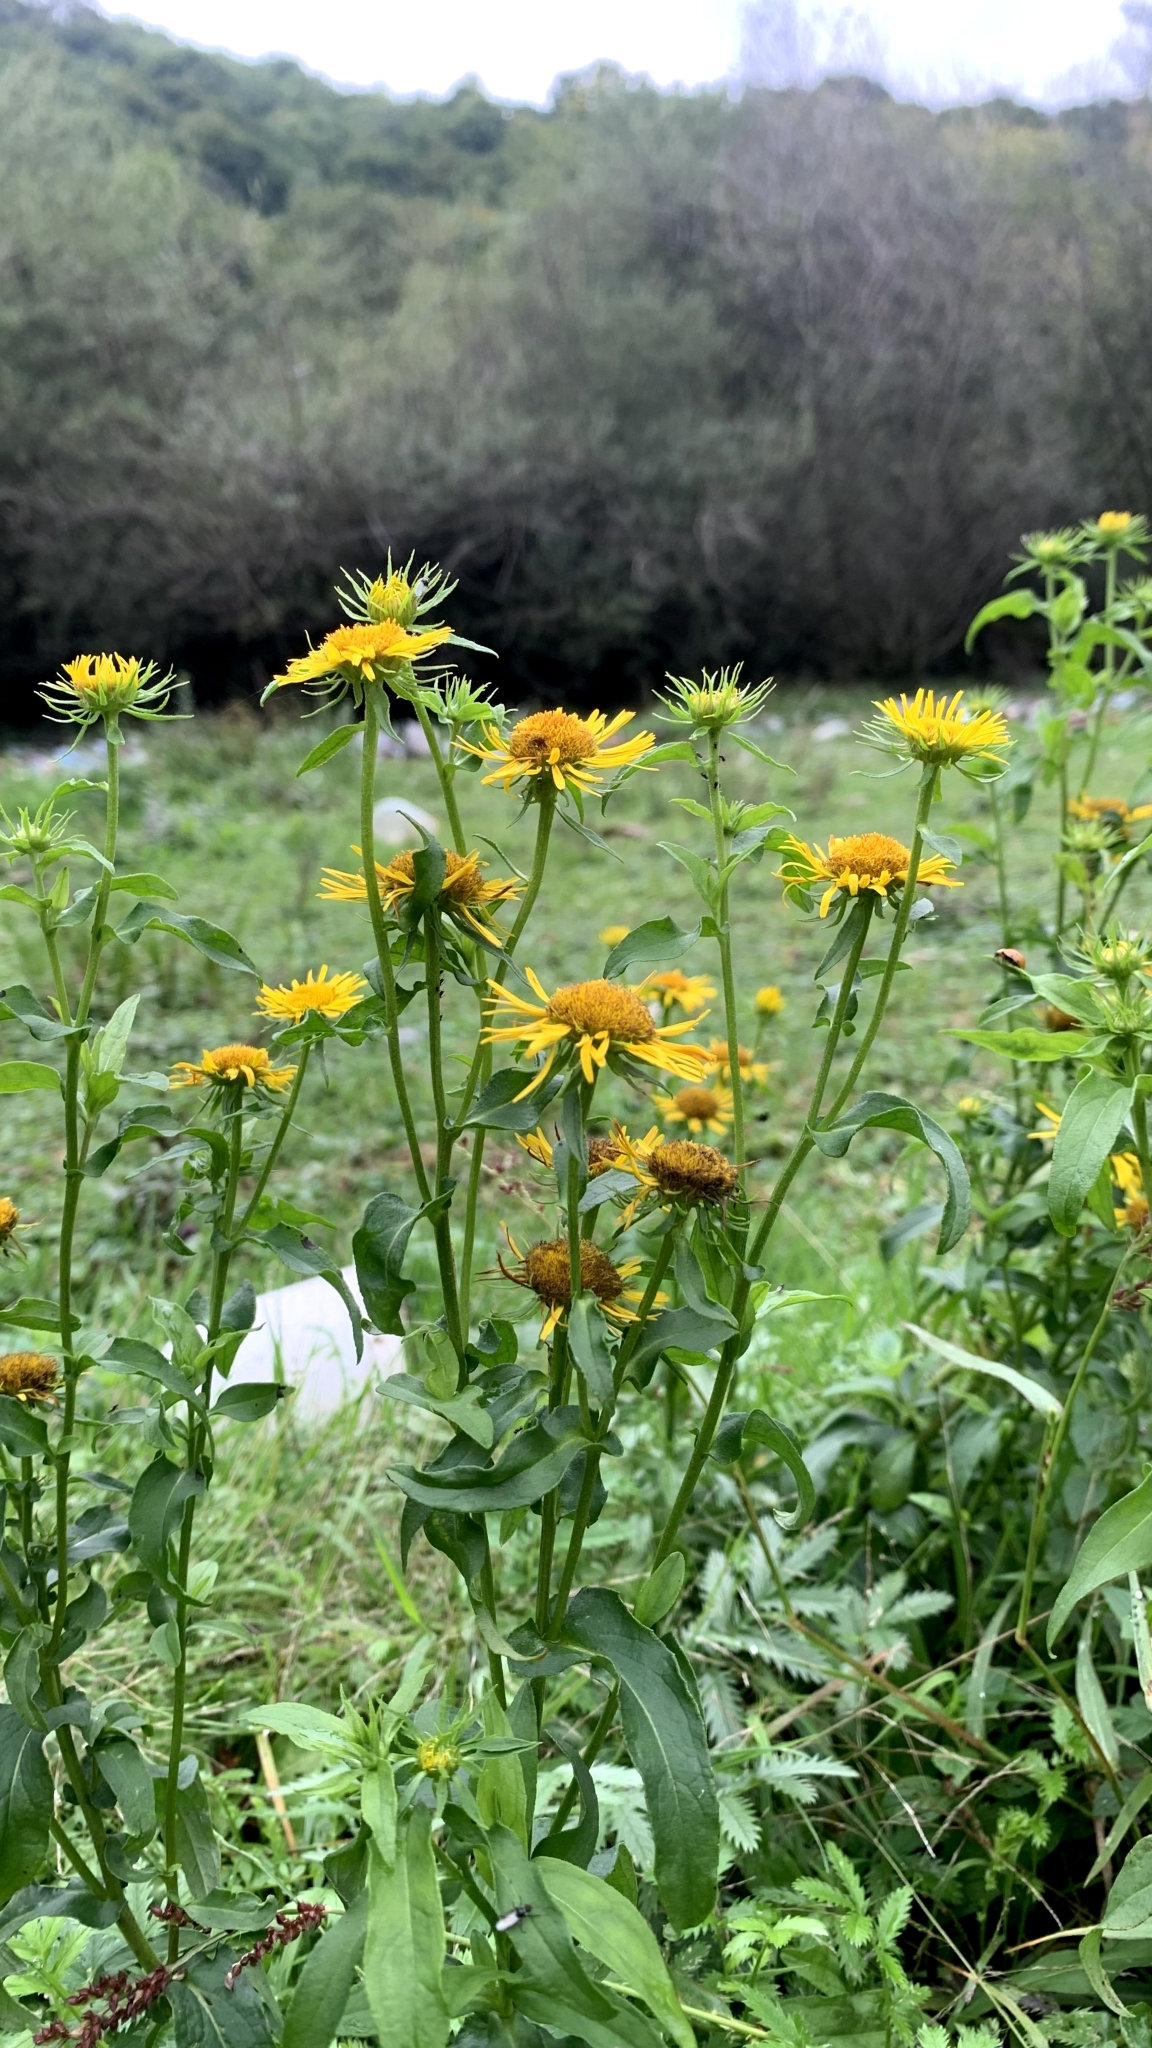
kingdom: Plantae
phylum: Tracheophyta
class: Magnoliopsida
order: Asterales
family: Asteraceae
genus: Pentanema
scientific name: Pentanema britannicum
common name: British elecampane
